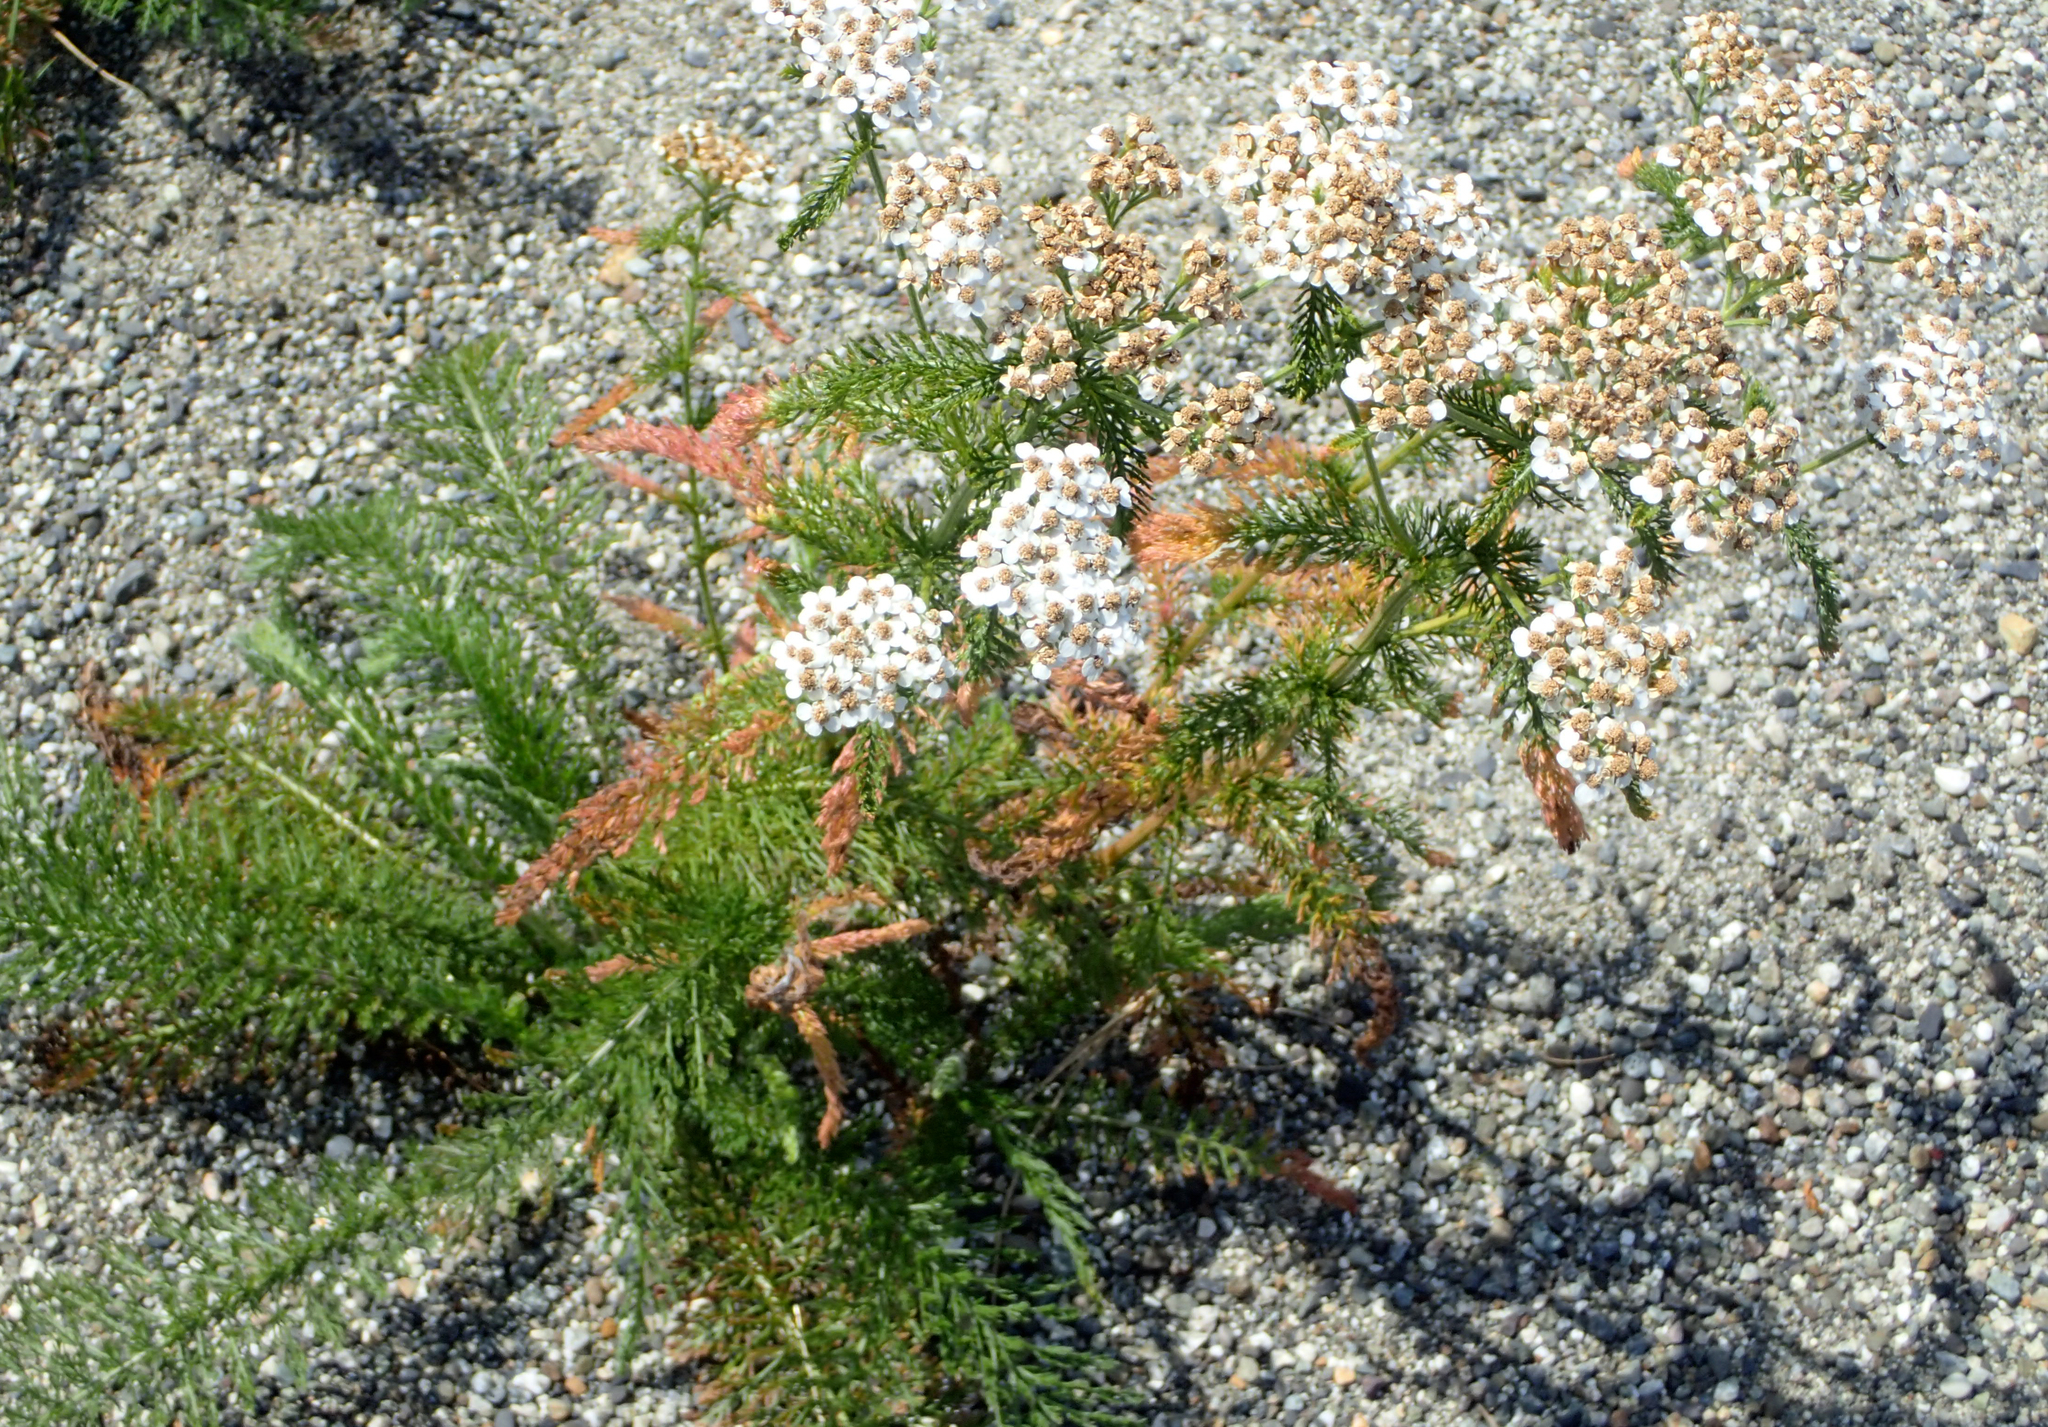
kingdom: Plantae
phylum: Tracheophyta
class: Magnoliopsida
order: Asterales
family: Asteraceae
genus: Achillea
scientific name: Achillea millefolium
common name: Yarrow
